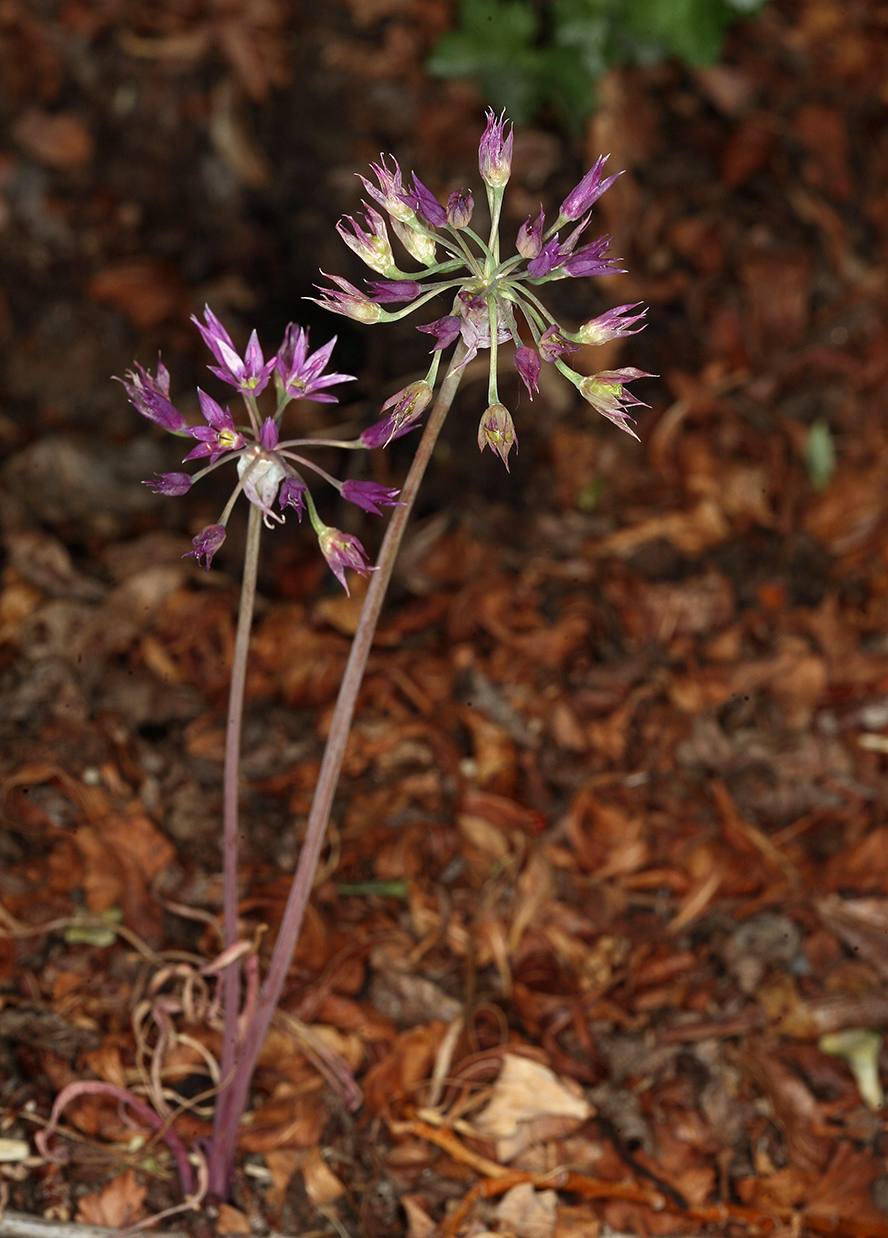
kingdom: Plantae
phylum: Tracheophyta
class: Liliopsida
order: Asparagales
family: Amaryllidaceae
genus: Allium
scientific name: Allium bisceptrum
